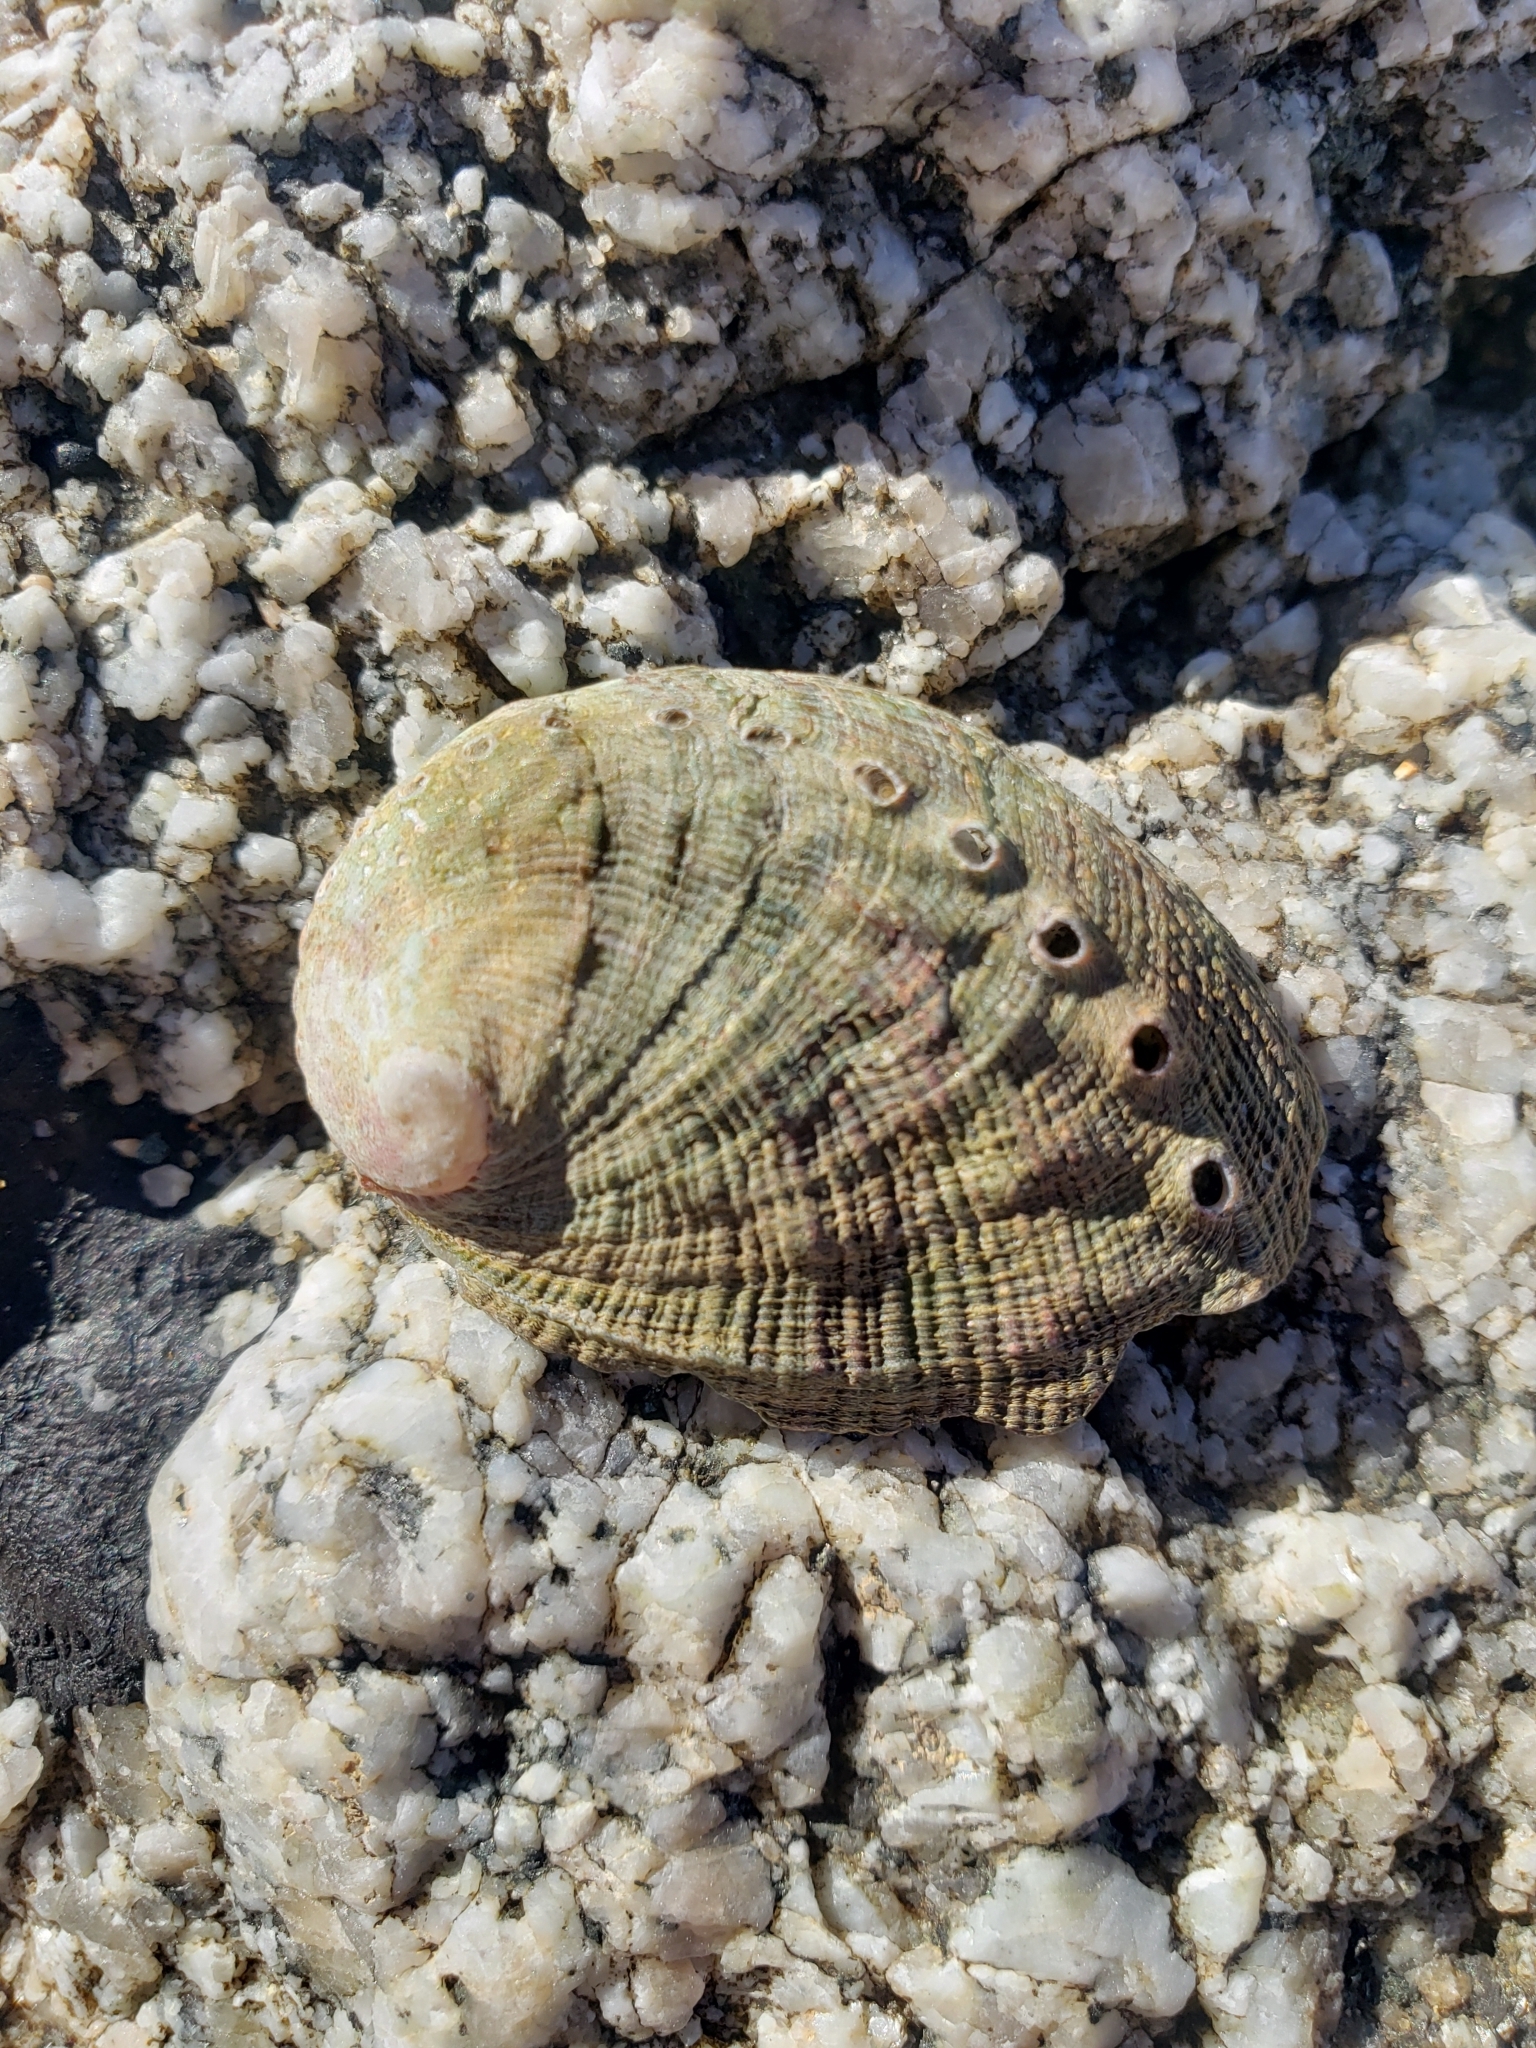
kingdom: Animalia
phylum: Mollusca
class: Gastropoda
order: Lepetellida
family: Haliotidae
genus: Haliotis
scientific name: Haliotis fulgens
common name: Green abalone
